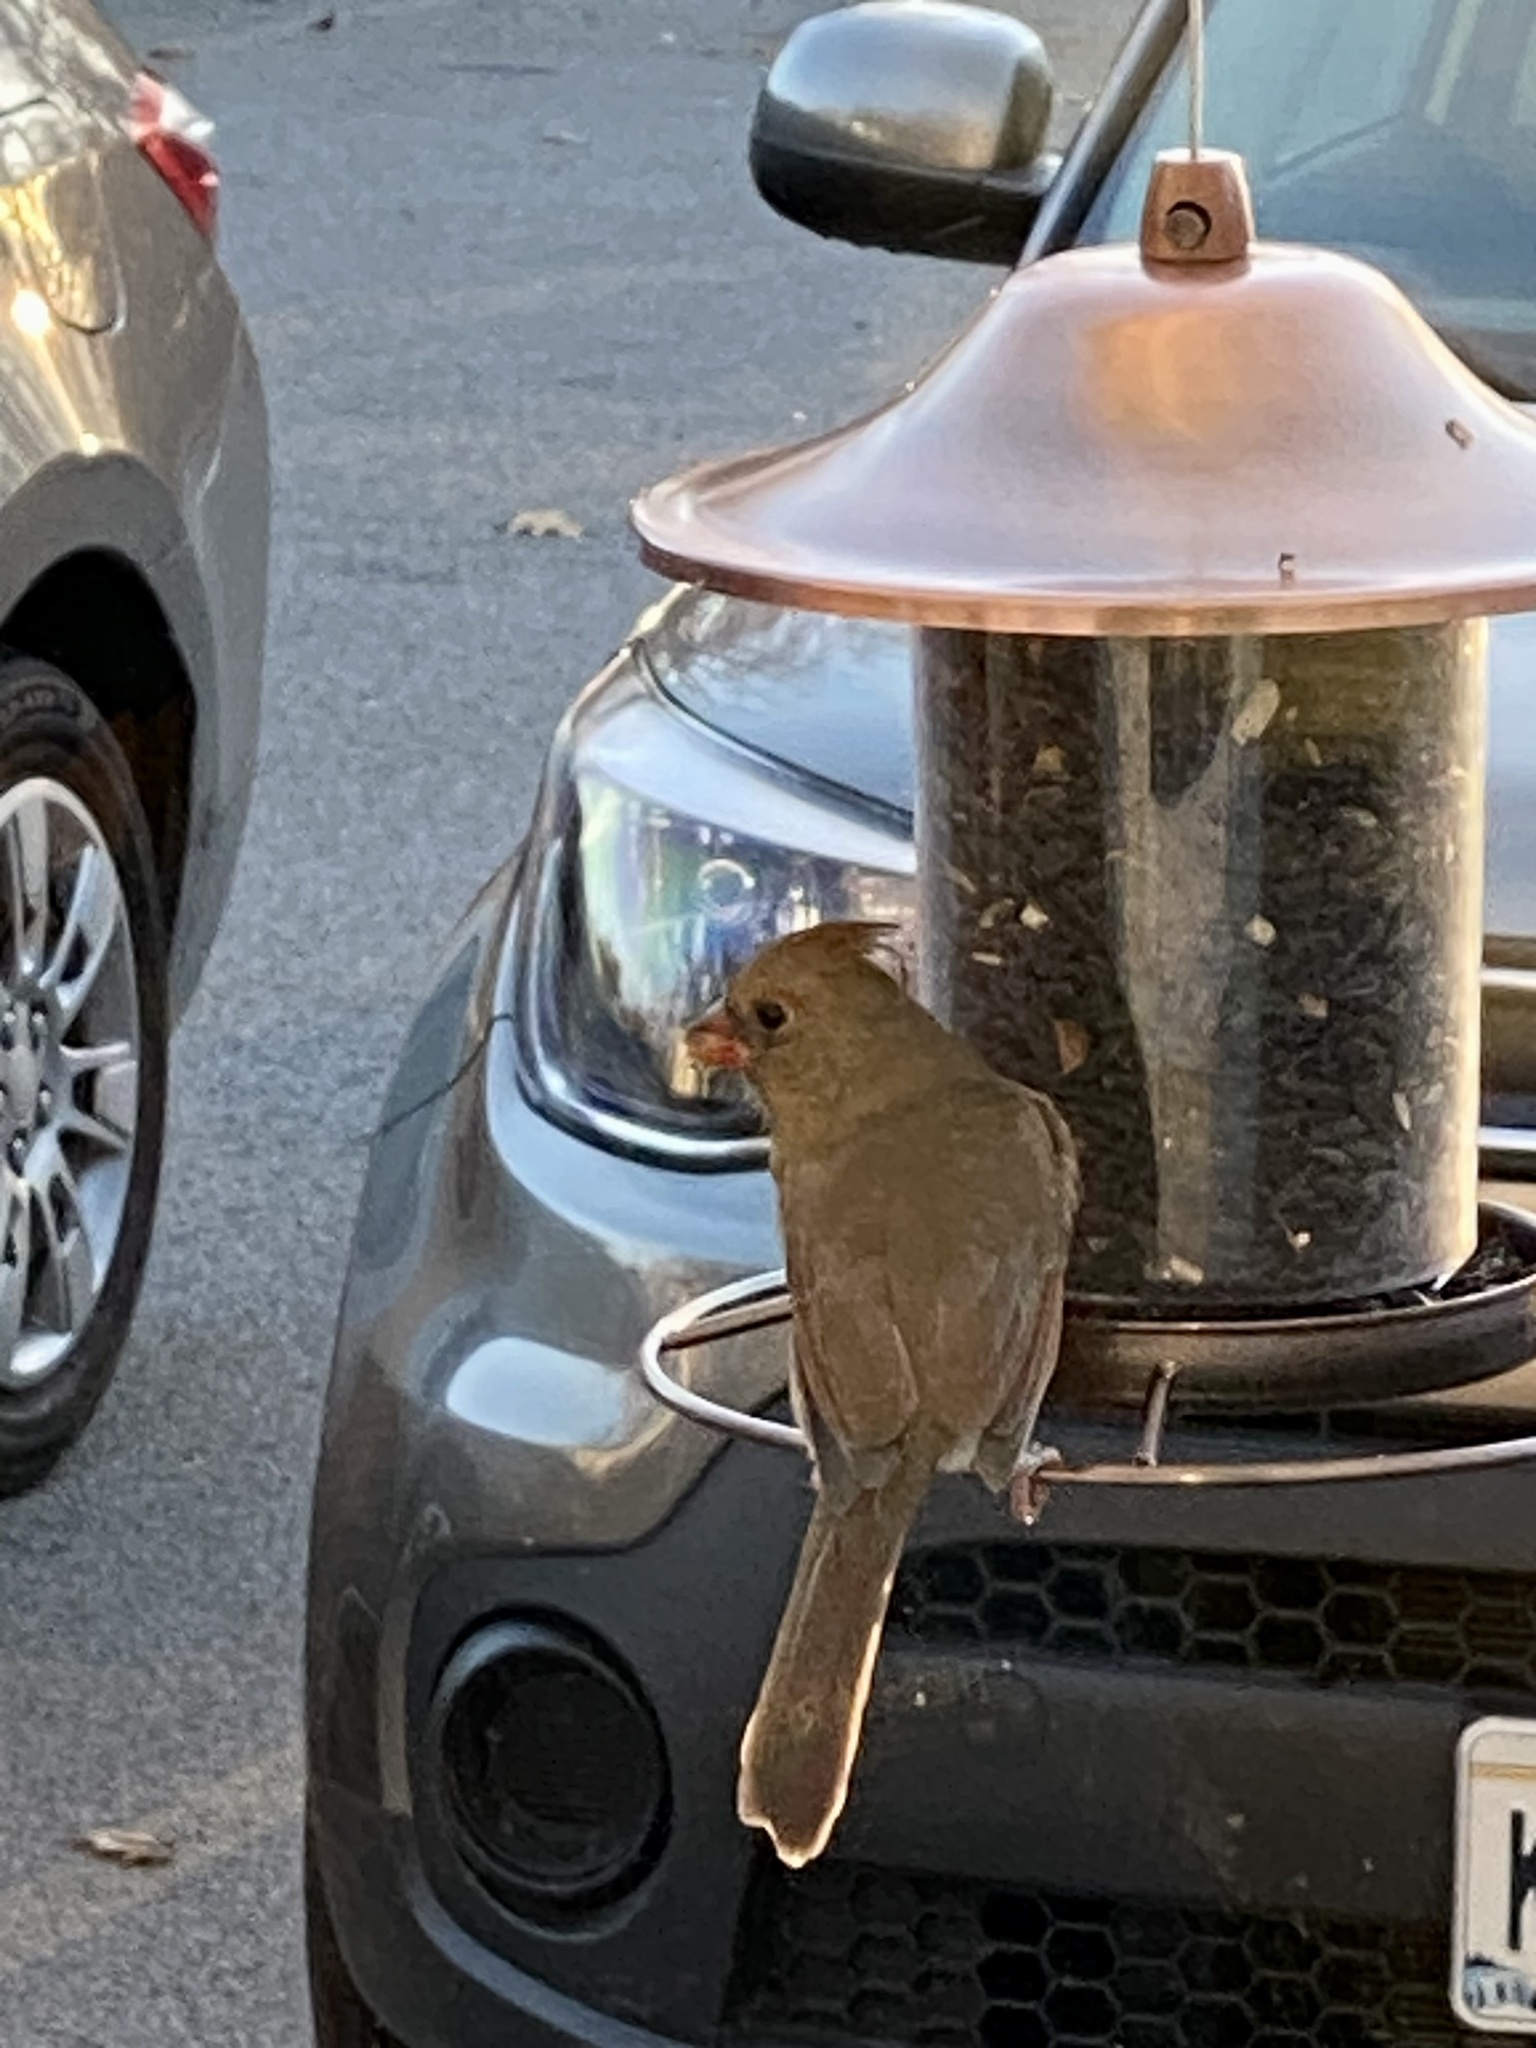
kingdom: Animalia
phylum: Chordata
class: Aves
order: Passeriformes
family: Cardinalidae
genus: Cardinalis
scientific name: Cardinalis cardinalis
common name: Northern cardinal
